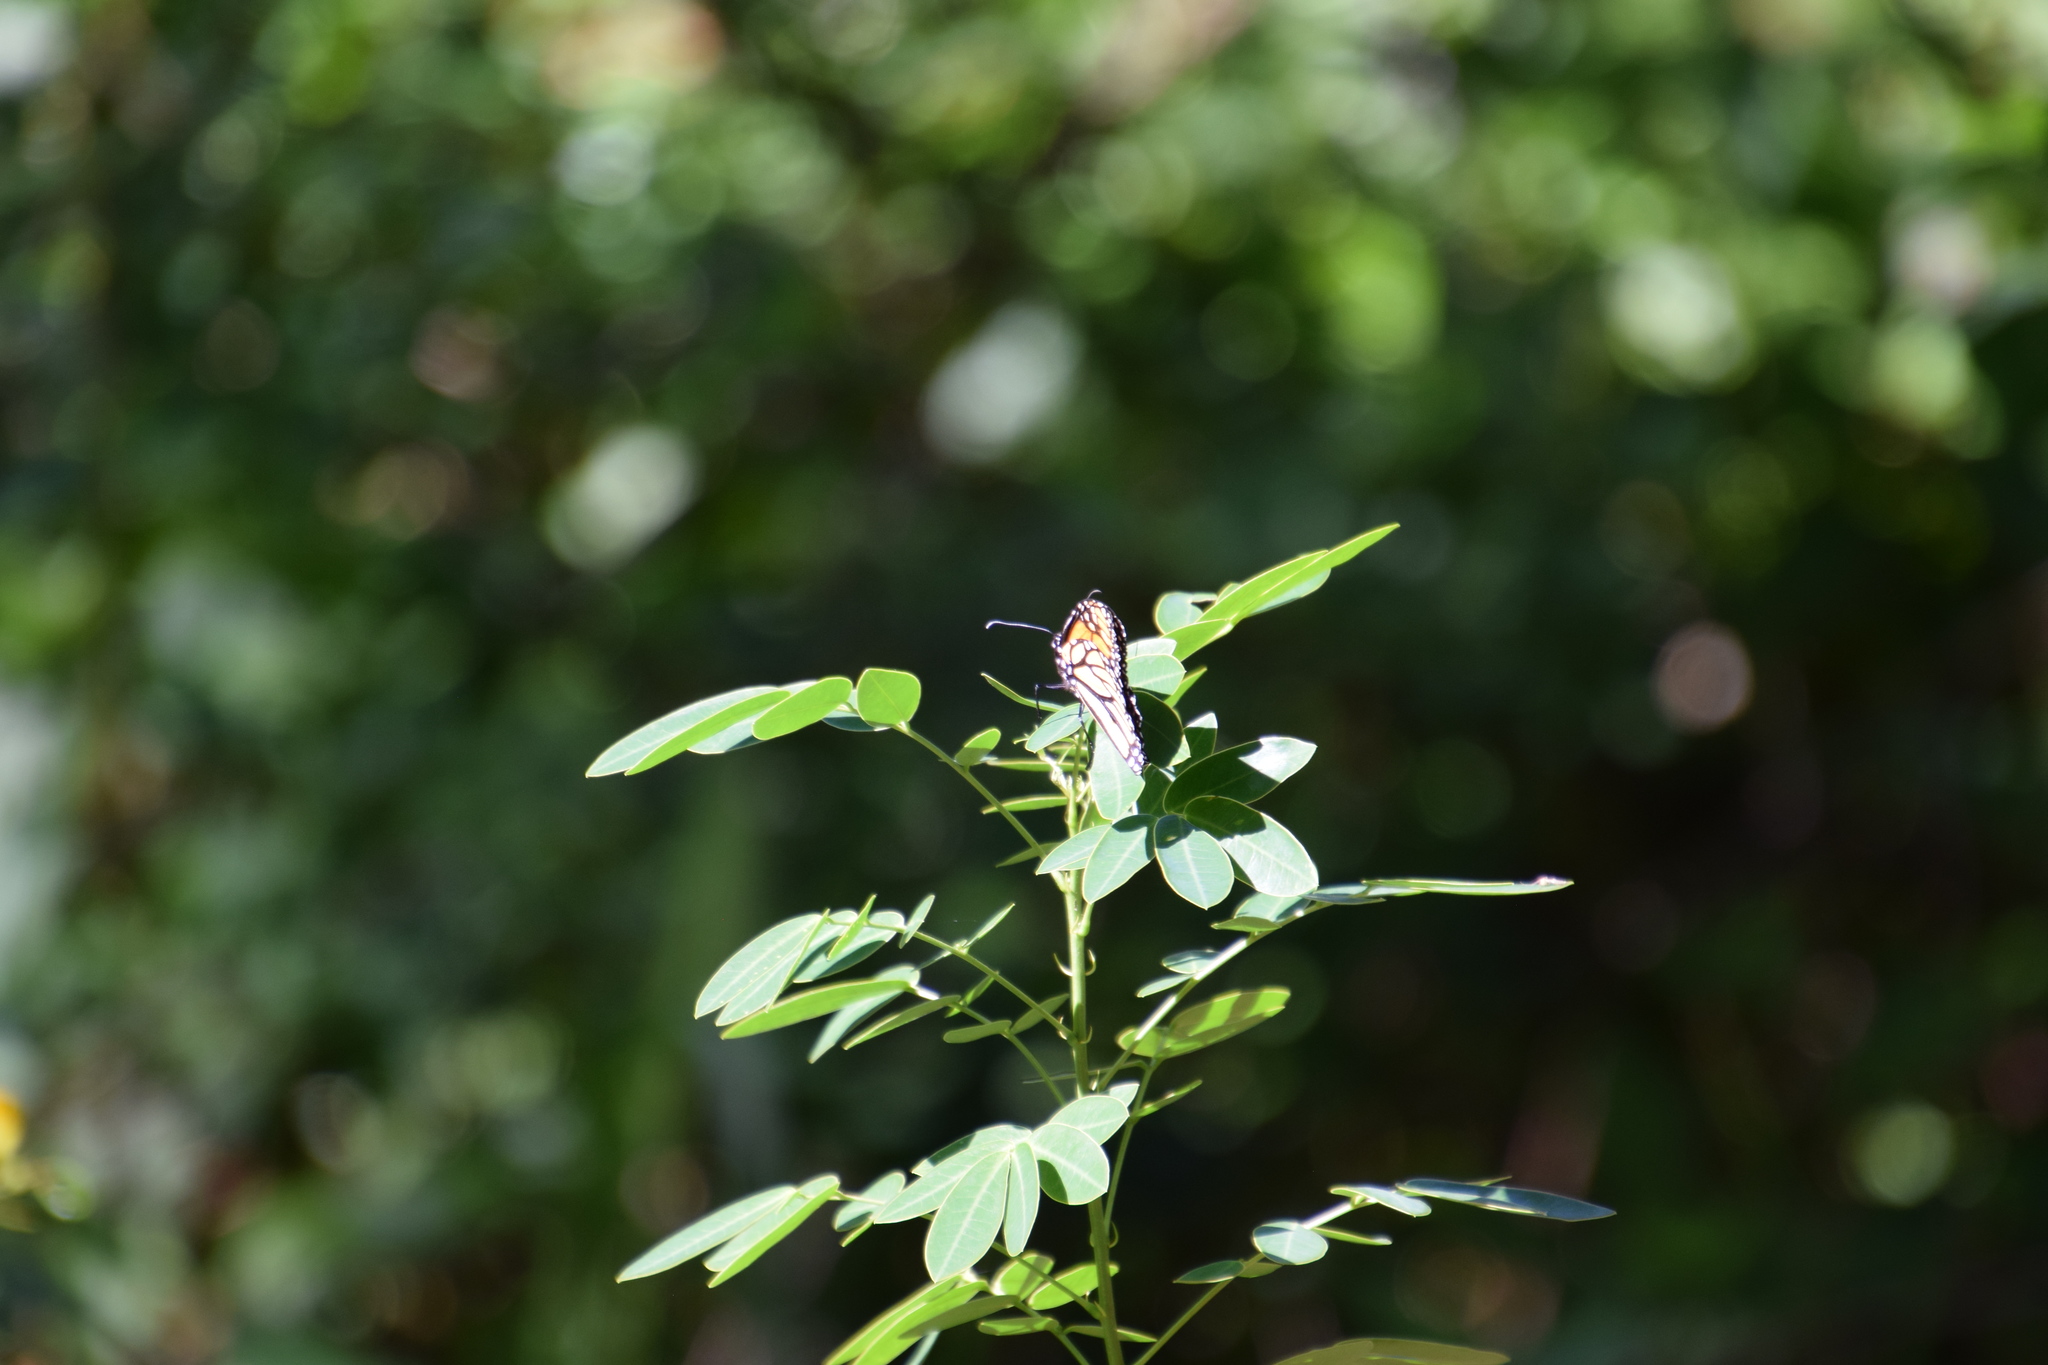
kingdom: Animalia
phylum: Arthropoda
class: Insecta
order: Lepidoptera
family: Nymphalidae
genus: Danaus
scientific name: Danaus plexippus
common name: Monarch
